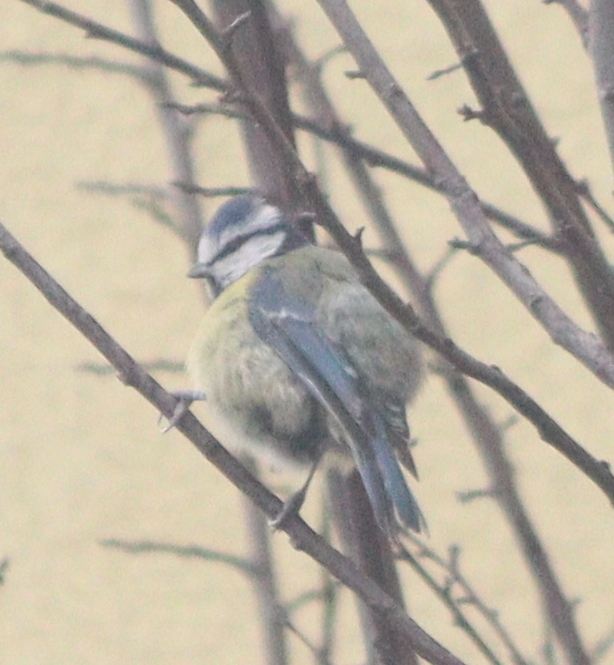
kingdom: Animalia
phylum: Chordata
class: Aves
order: Passeriformes
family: Paridae
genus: Cyanistes
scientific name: Cyanistes caeruleus
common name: Eurasian blue tit
